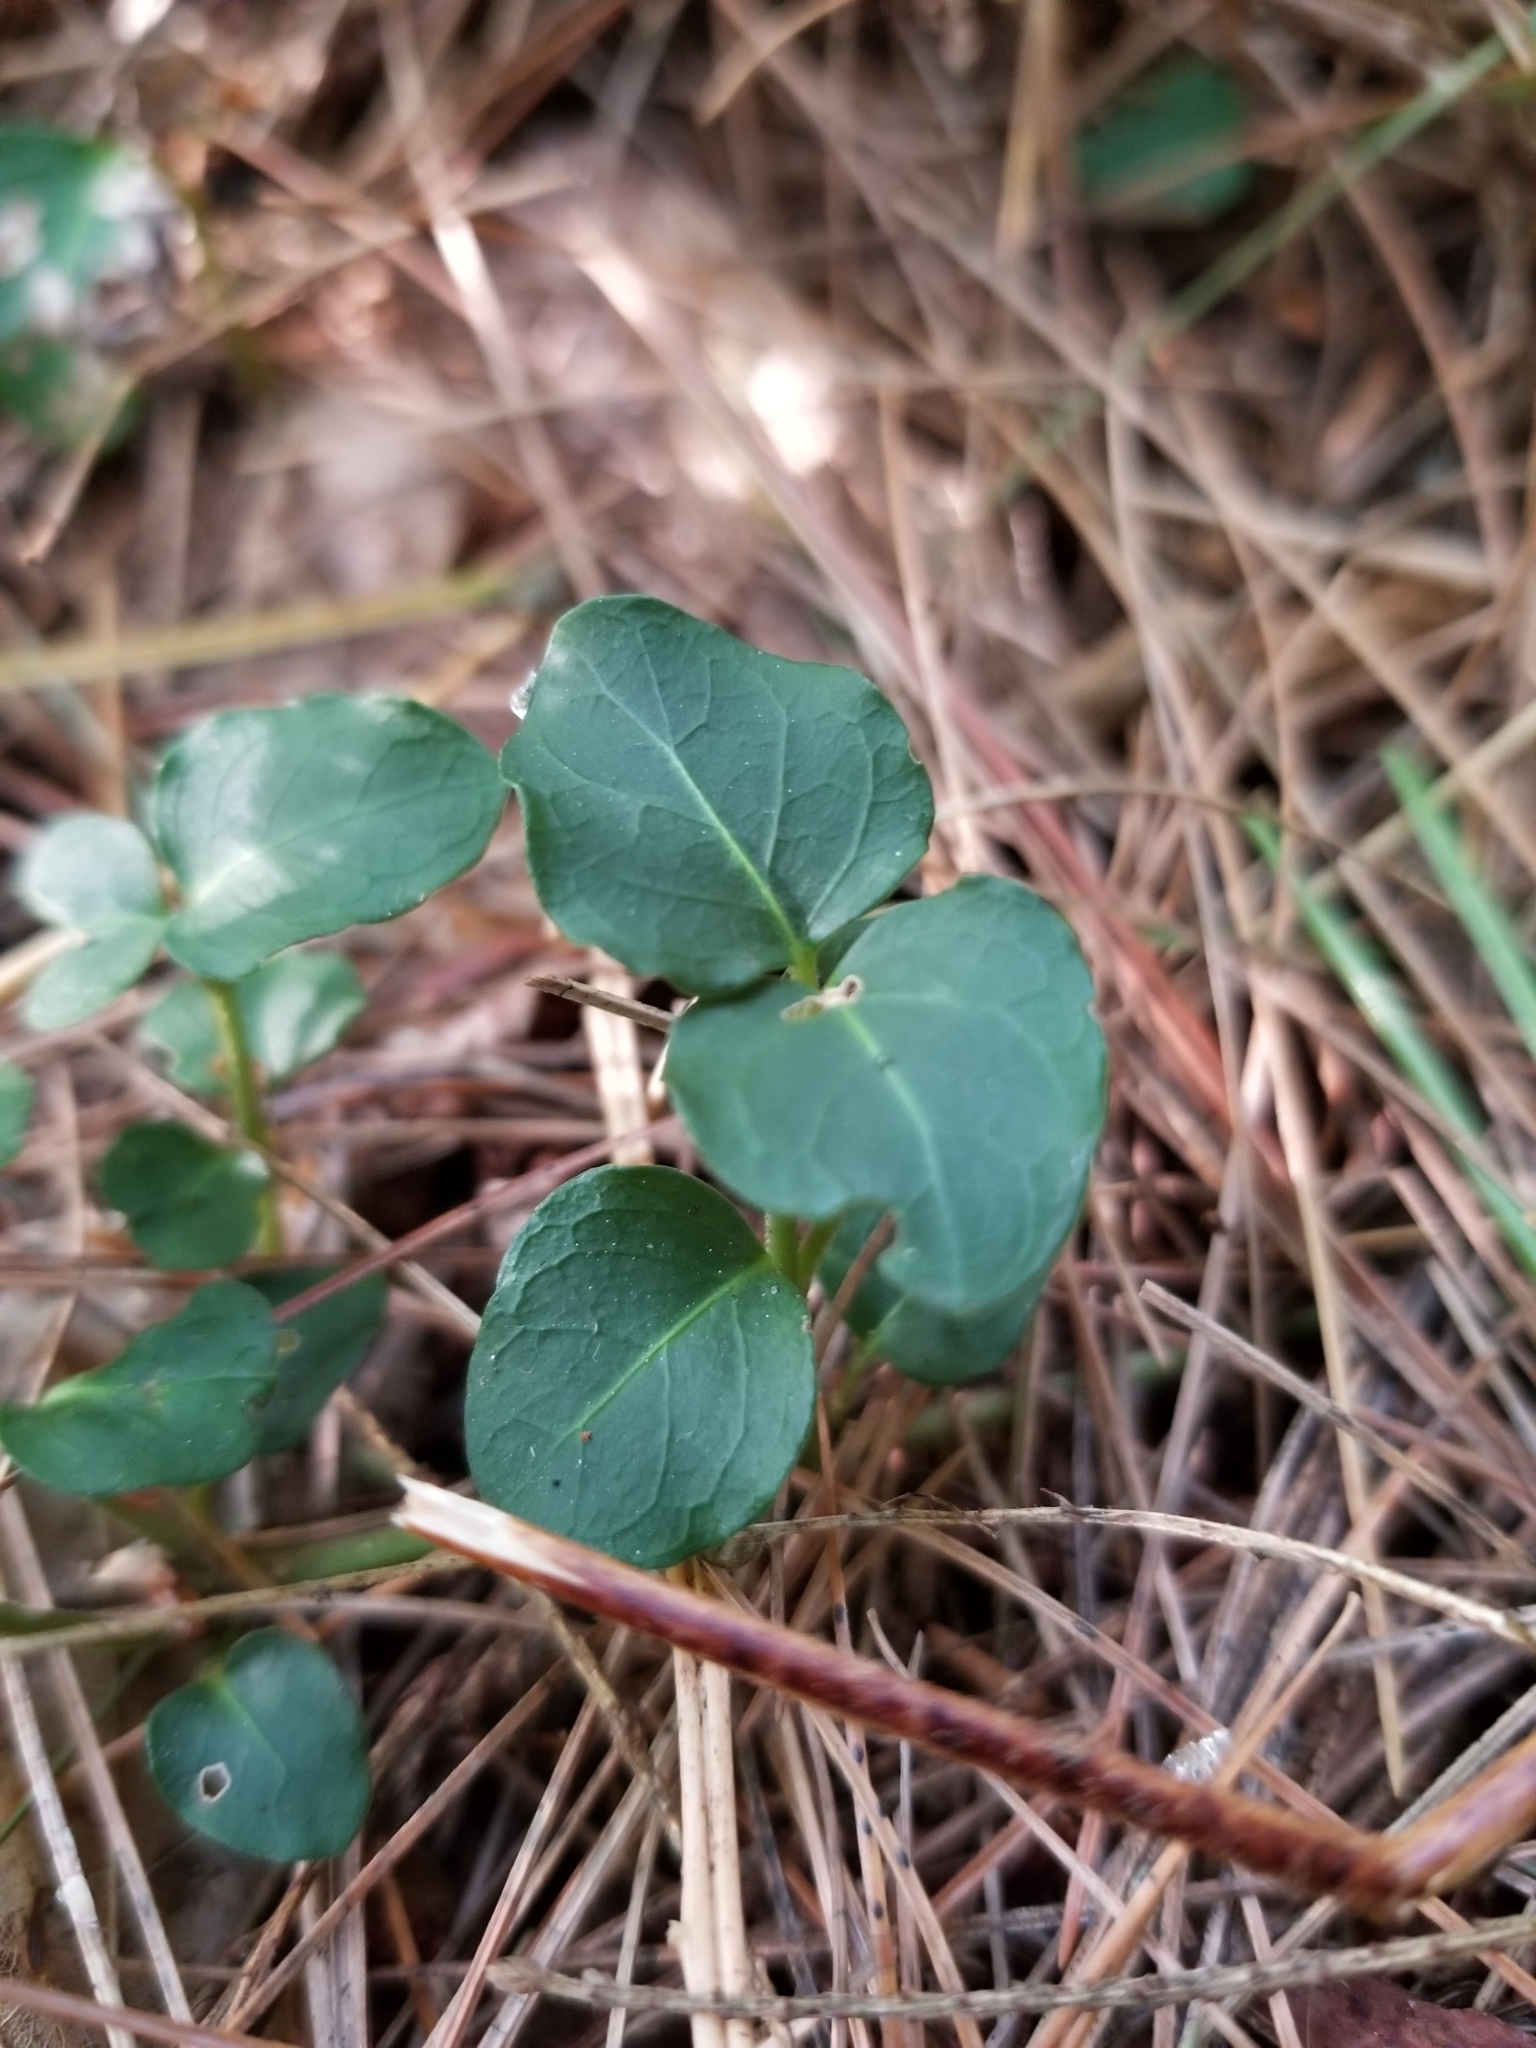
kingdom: Plantae
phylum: Tracheophyta
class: Magnoliopsida
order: Gentianales
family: Rubiaceae
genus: Mitchella
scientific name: Mitchella repens
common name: Partridge-berry
